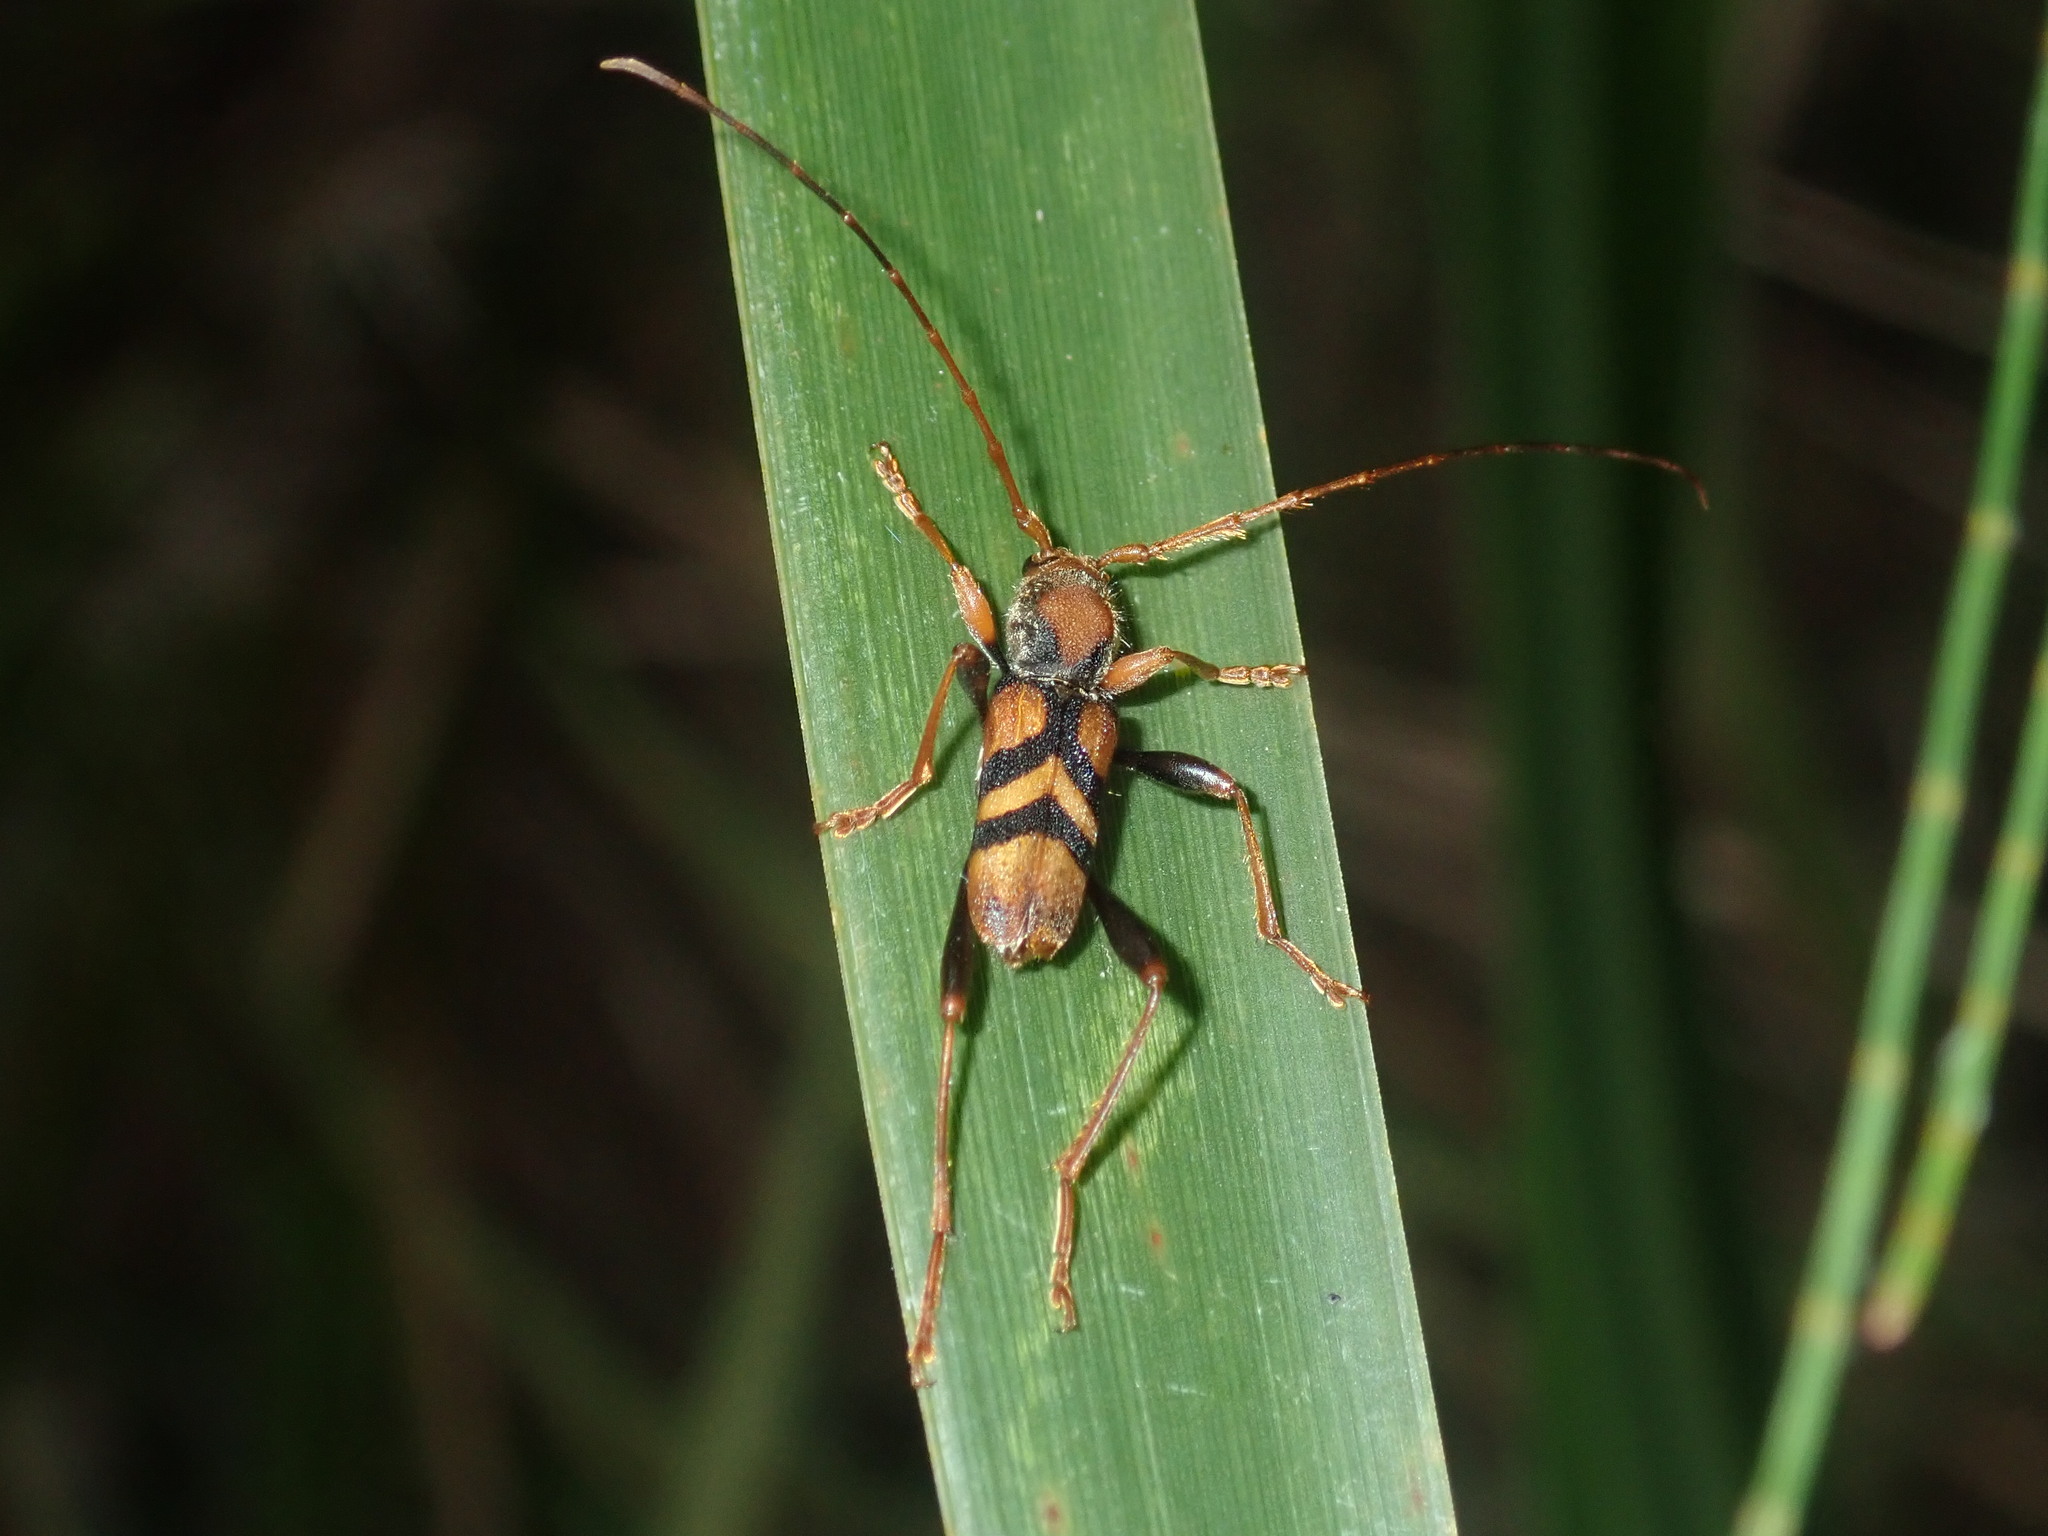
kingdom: Animalia
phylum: Arthropoda
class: Insecta
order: Coleoptera
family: Cerambycidae
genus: Aridaeus
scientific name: Aridaeus thoracicus
